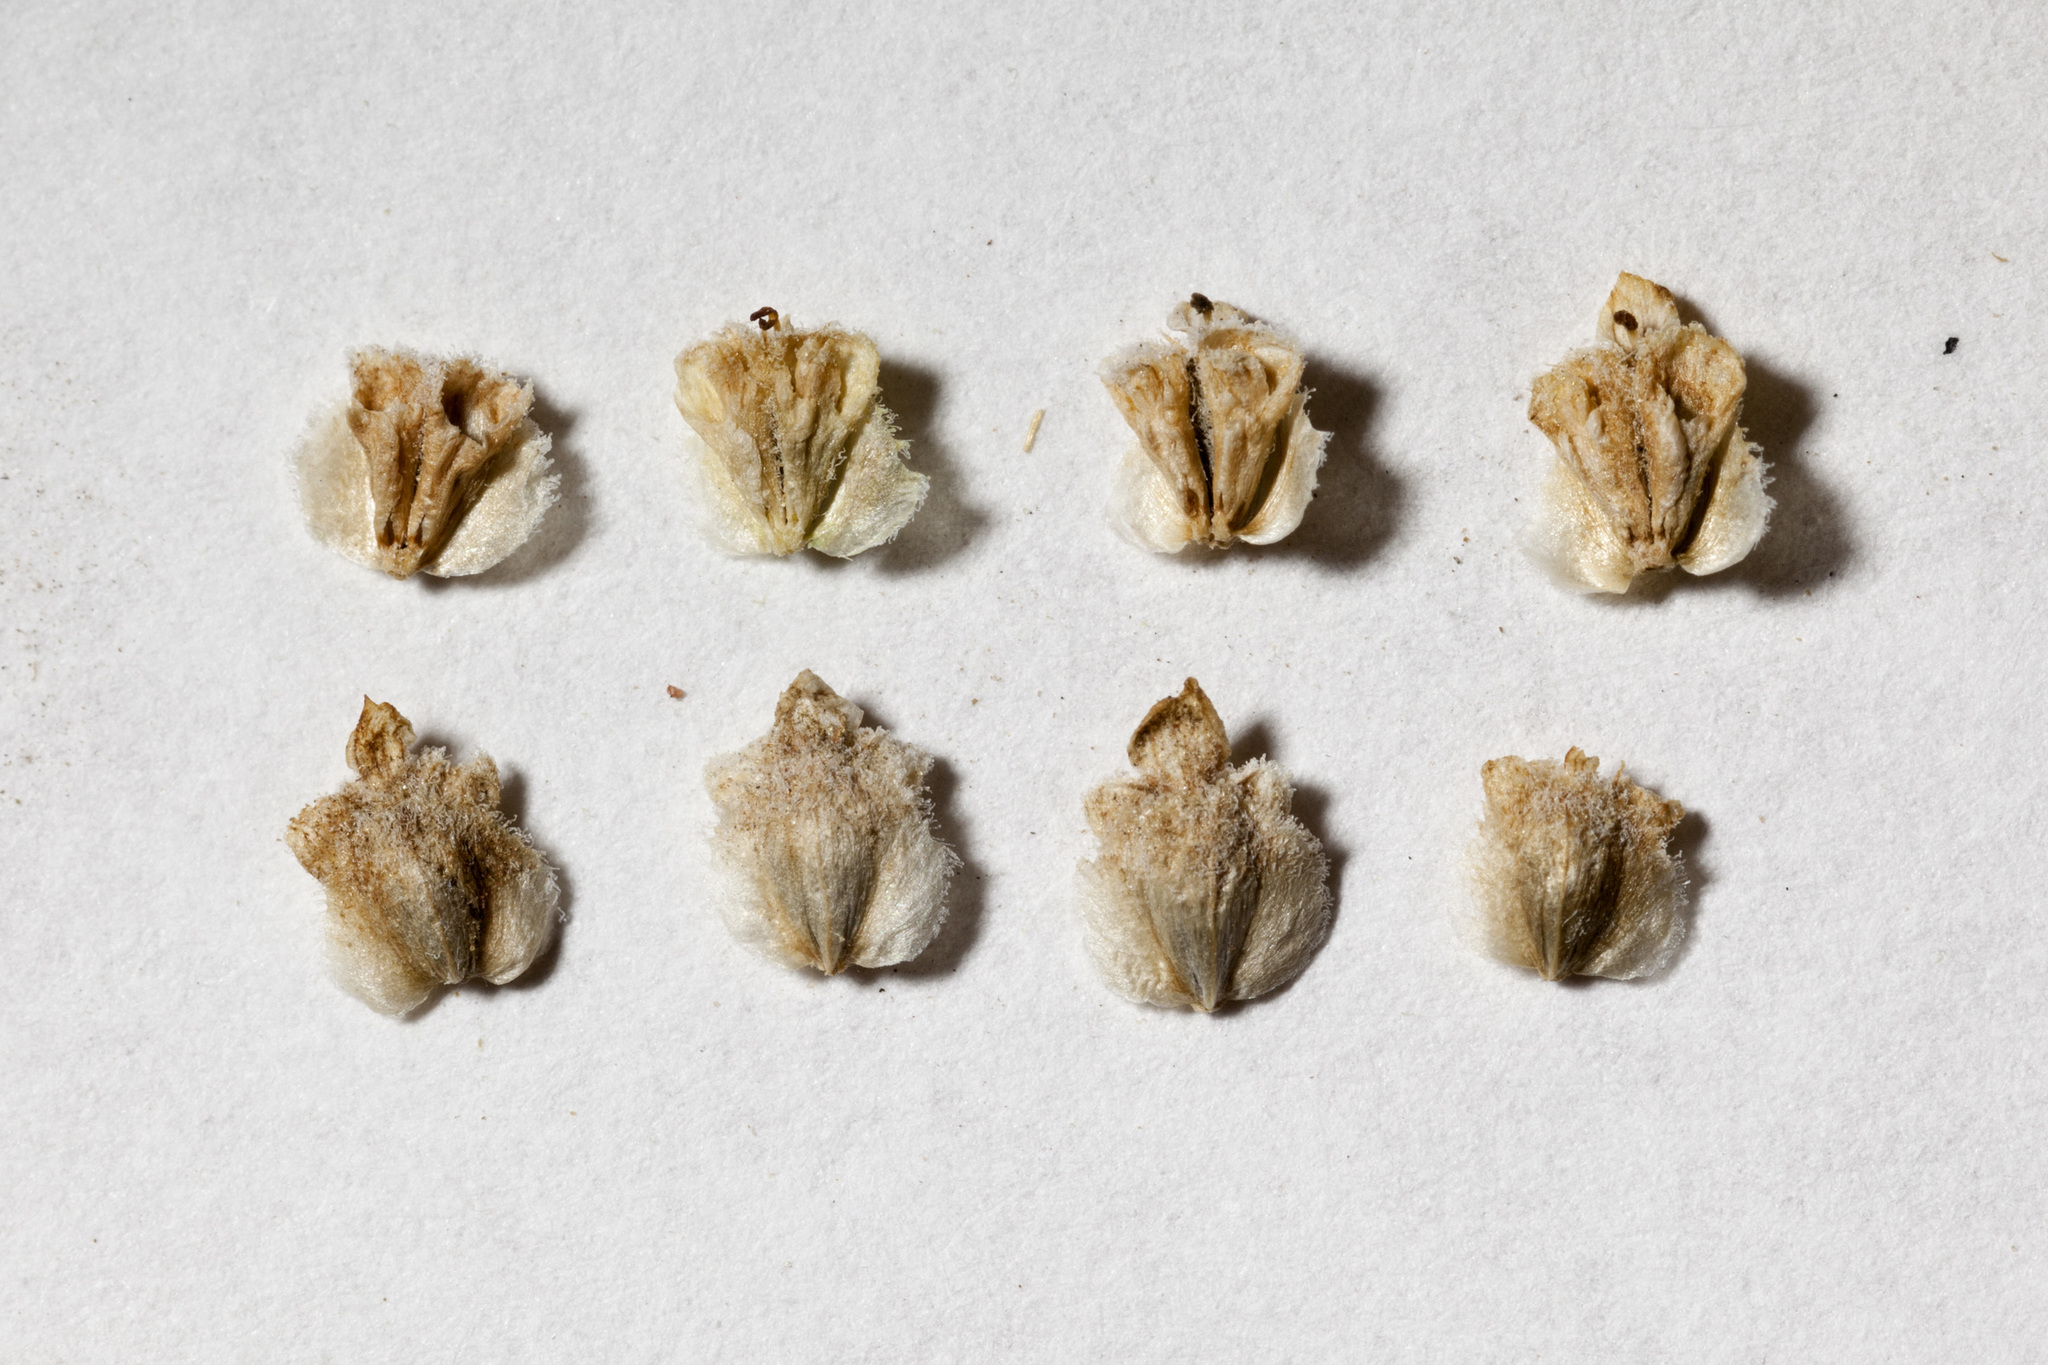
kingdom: Plantae
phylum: Tracheophyta
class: Magnoliopsida
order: Asterales
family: Asteraceae
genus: Parthenium
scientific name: Parthenium incanum
